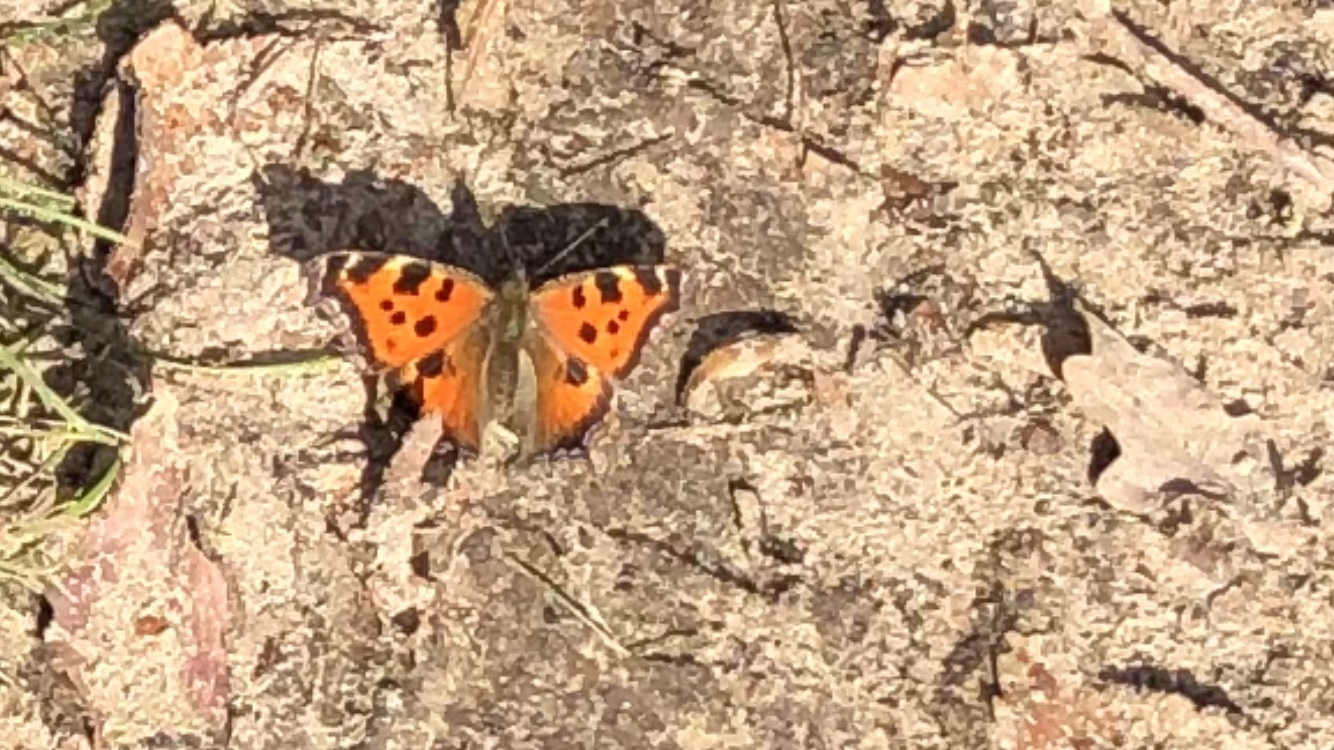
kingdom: Animalia
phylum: Arthropoda
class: Insecta
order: Lepidoptera
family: Nymphalidae
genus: Nymphalis
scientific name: Nymphalis xanthomelas
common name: Scarce tortoiseshell
